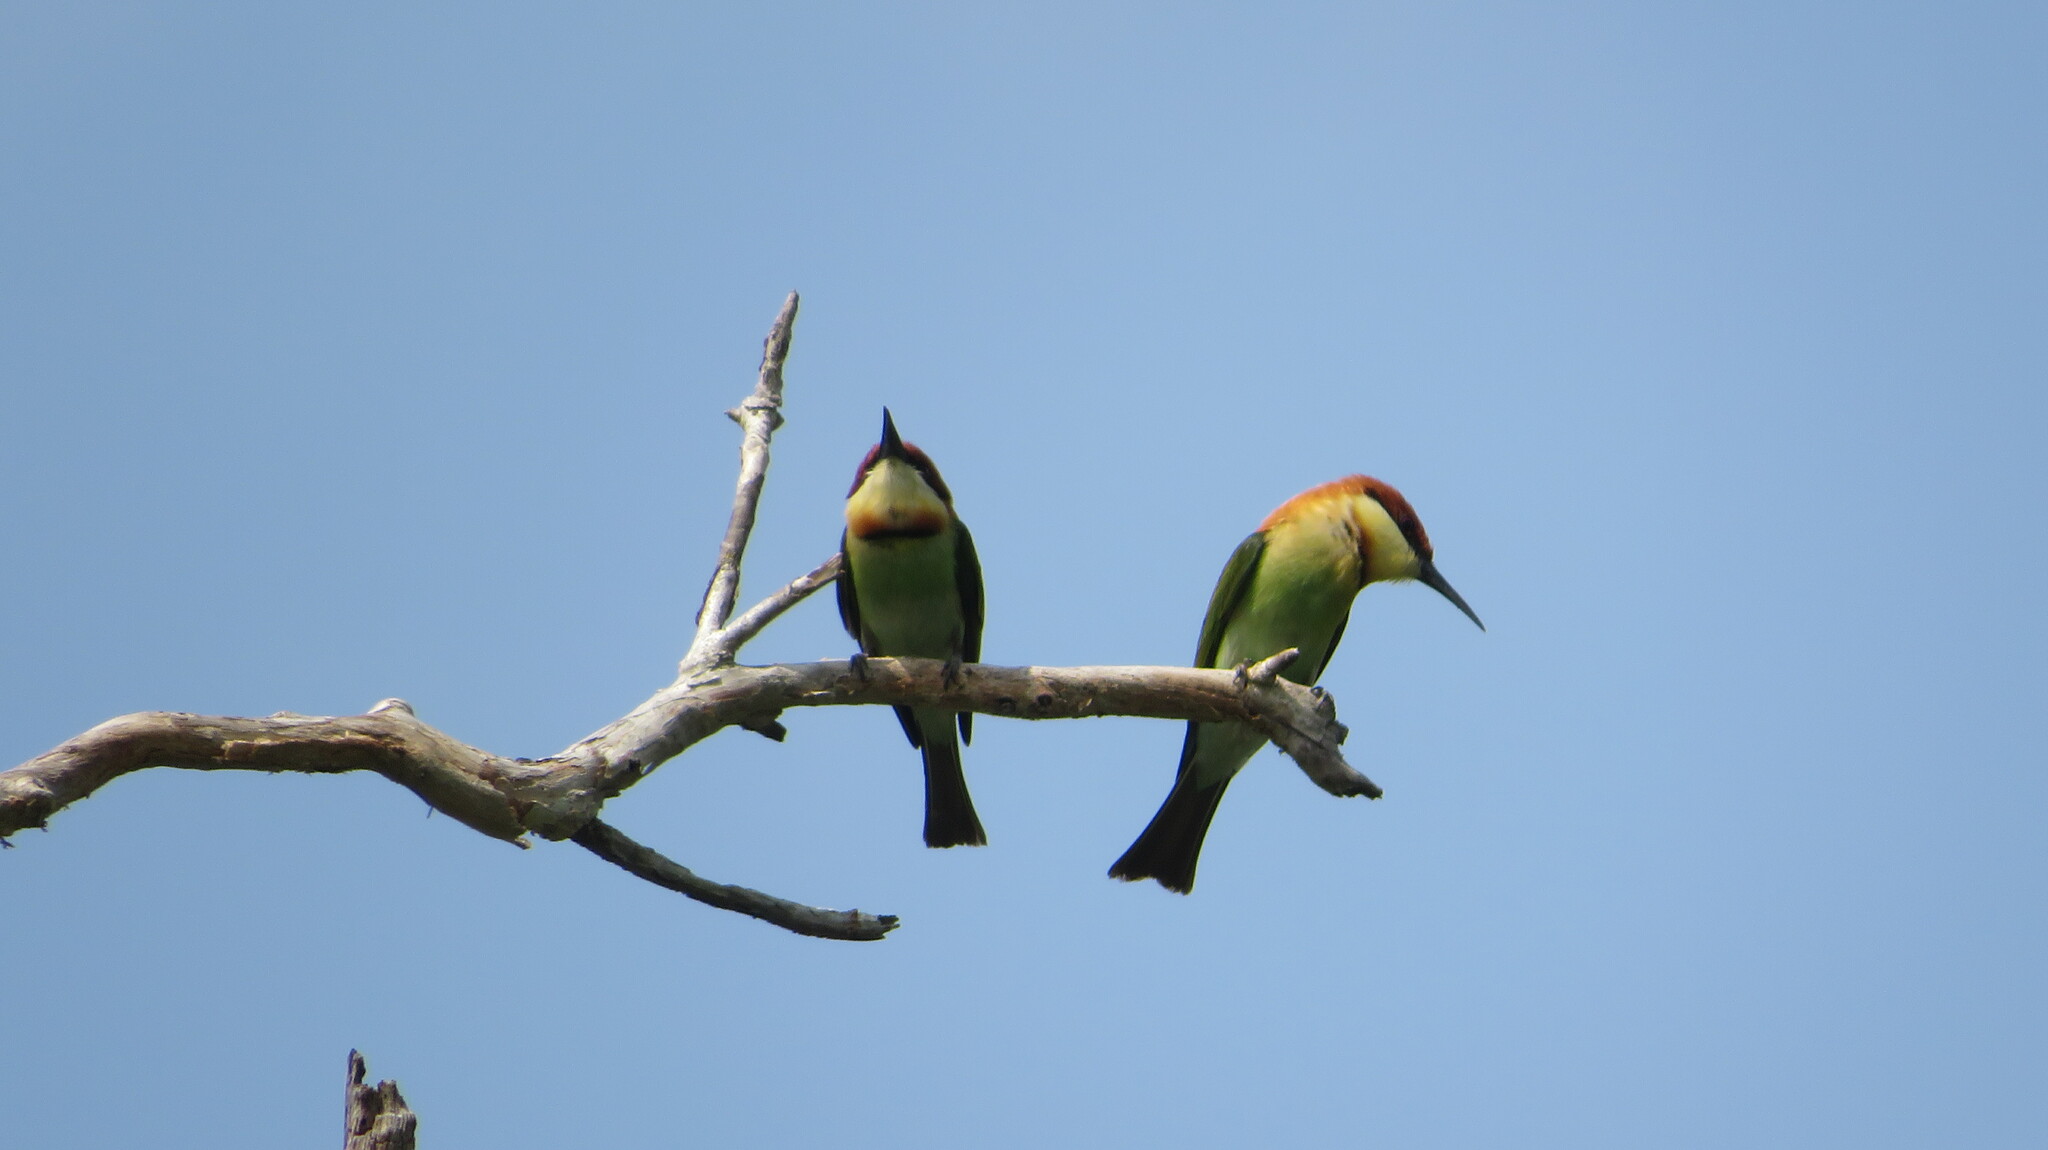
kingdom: Animalia
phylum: Chordata
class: Aves
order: Coraciiformes
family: Meropidae
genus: Merops
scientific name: Merops leschenaulti
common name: Chestnut-headed bee-eater
